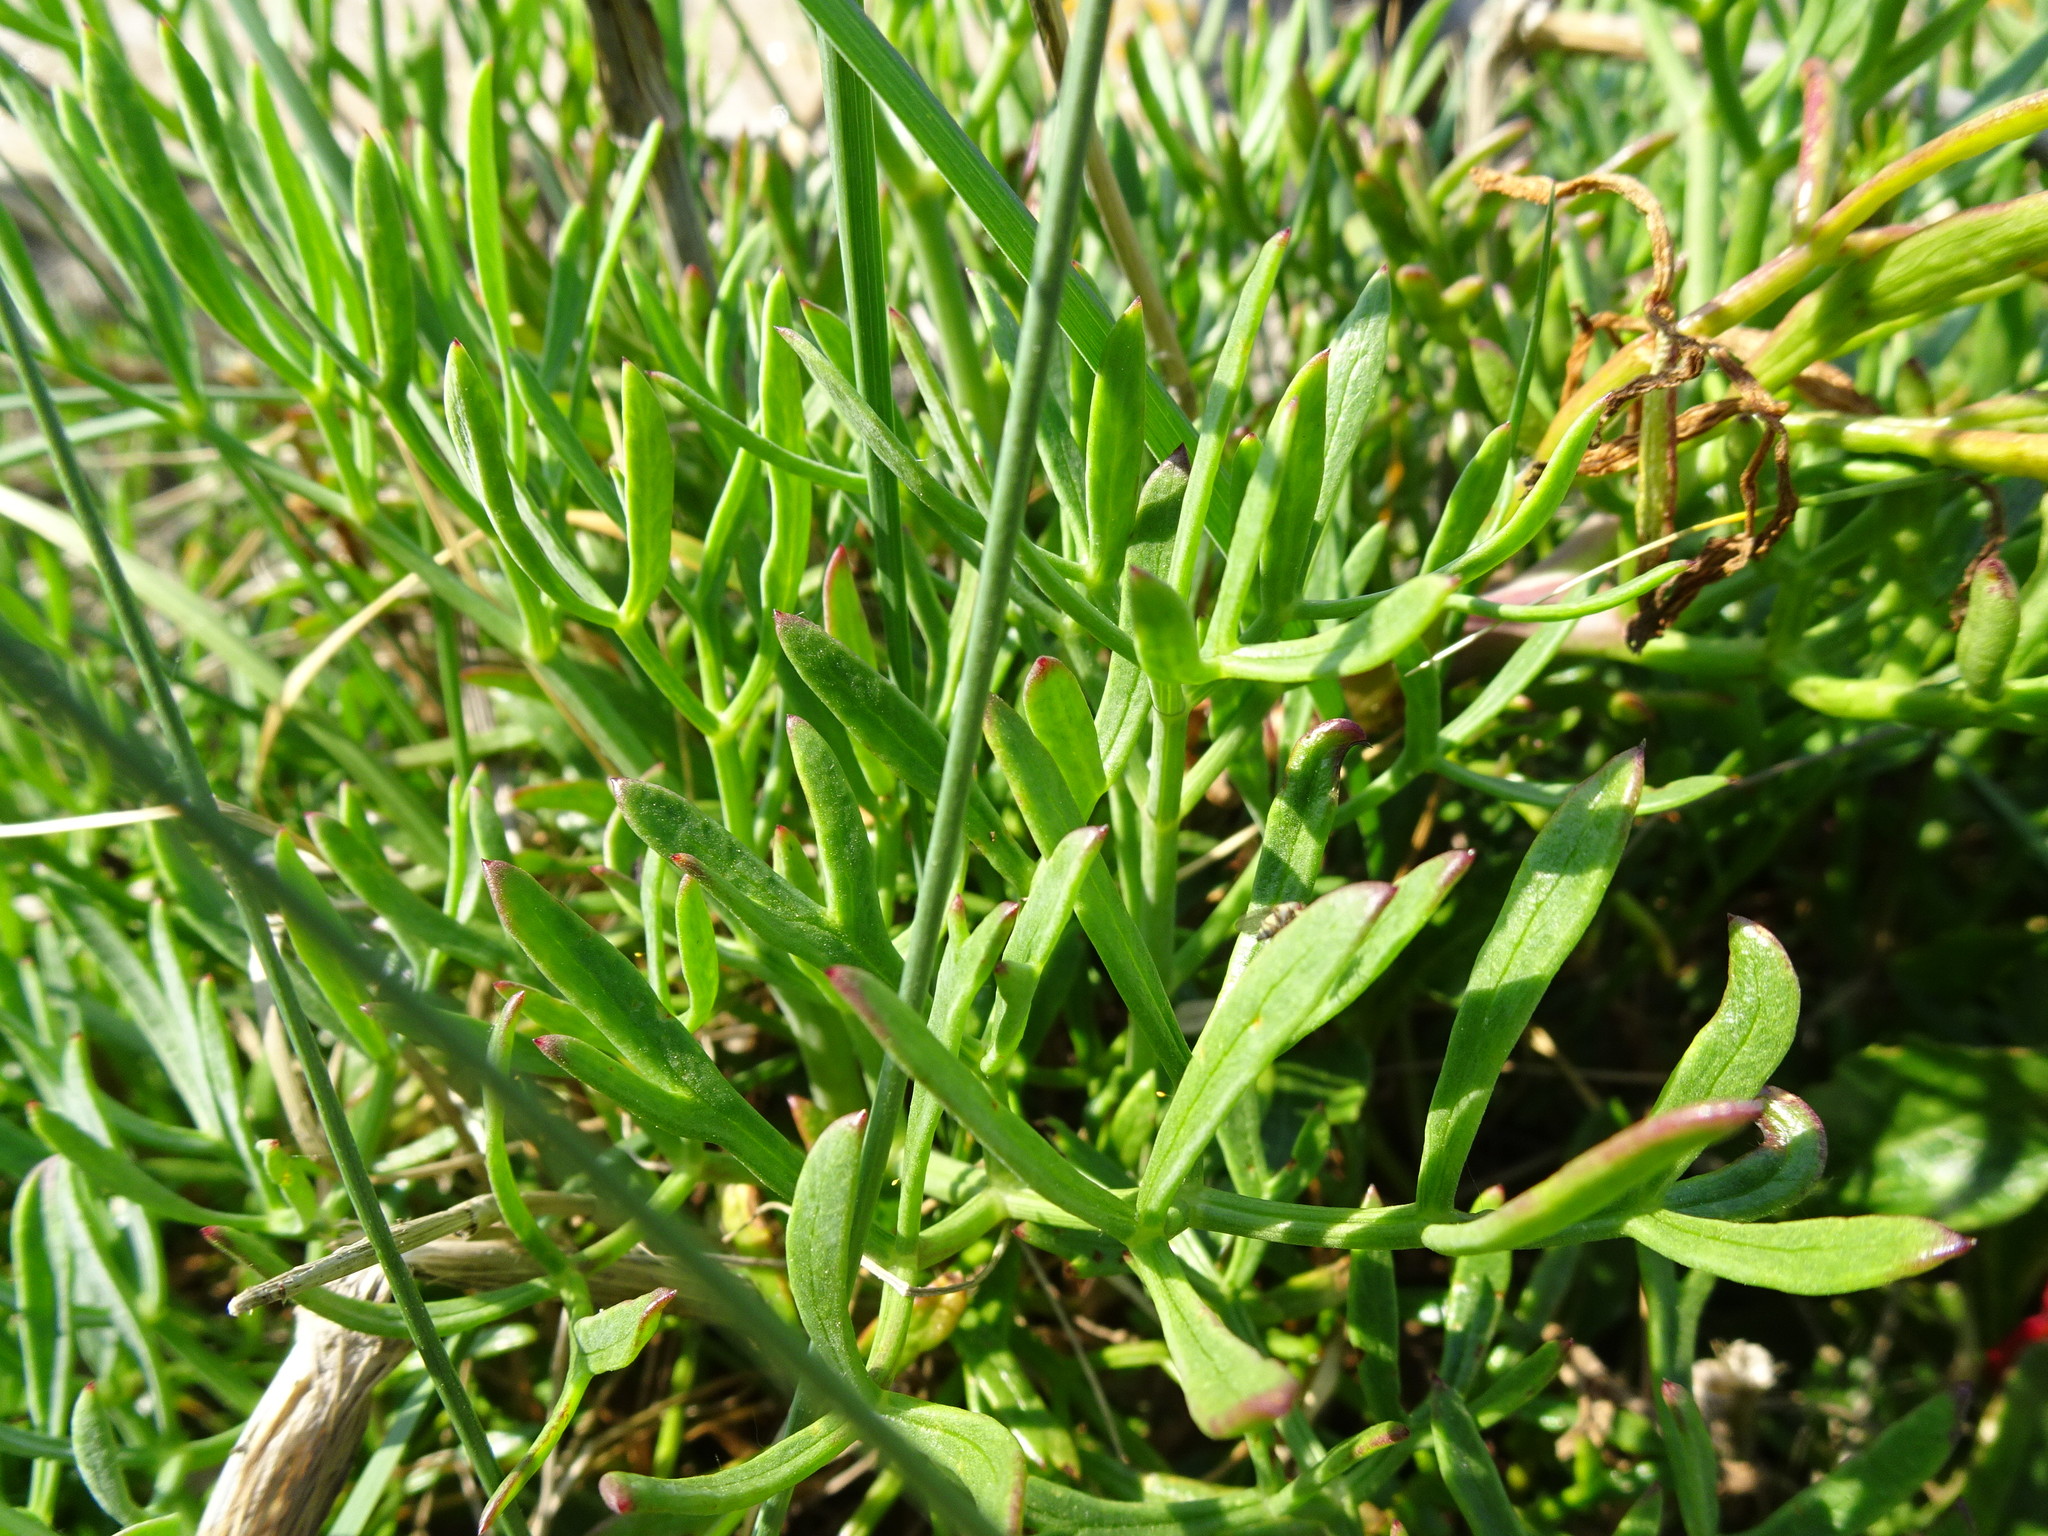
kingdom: Plantae
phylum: Tracheophyta
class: Magnoliopsida
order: Apiales
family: Apiaceae
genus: Crithmum
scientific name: Crithmum maritimum
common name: Rock samphire
